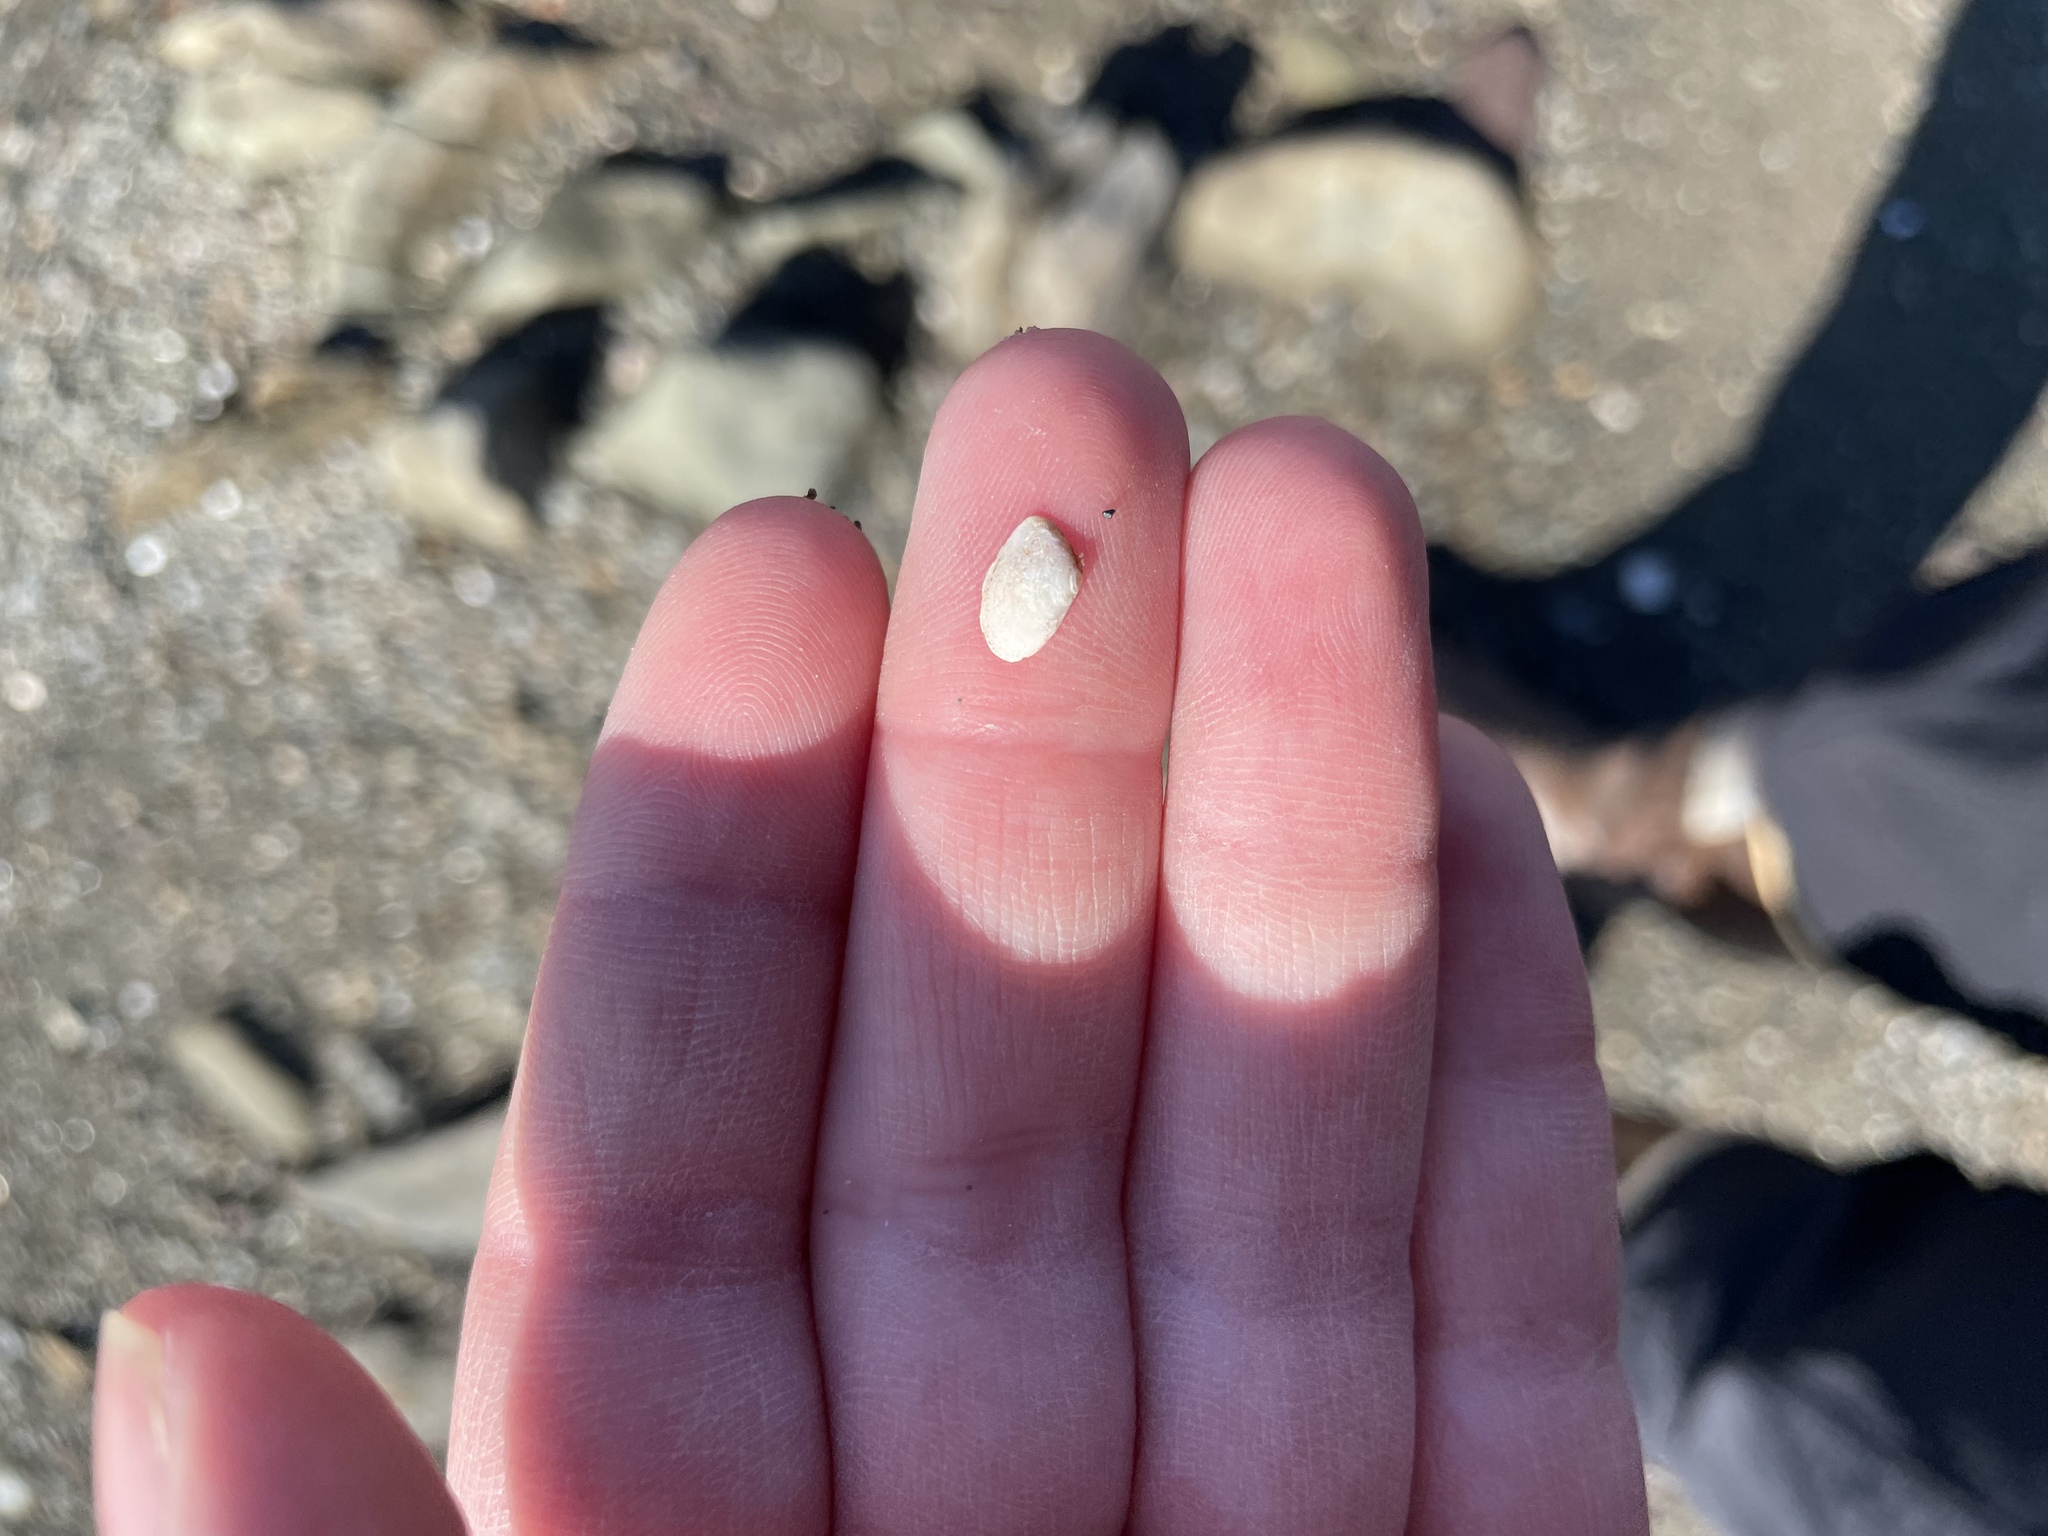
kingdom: Animalia
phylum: Mollusca
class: Bivalvia
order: Cardiida
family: Tellinidae
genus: Ameritella
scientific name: Ameritella agilis
